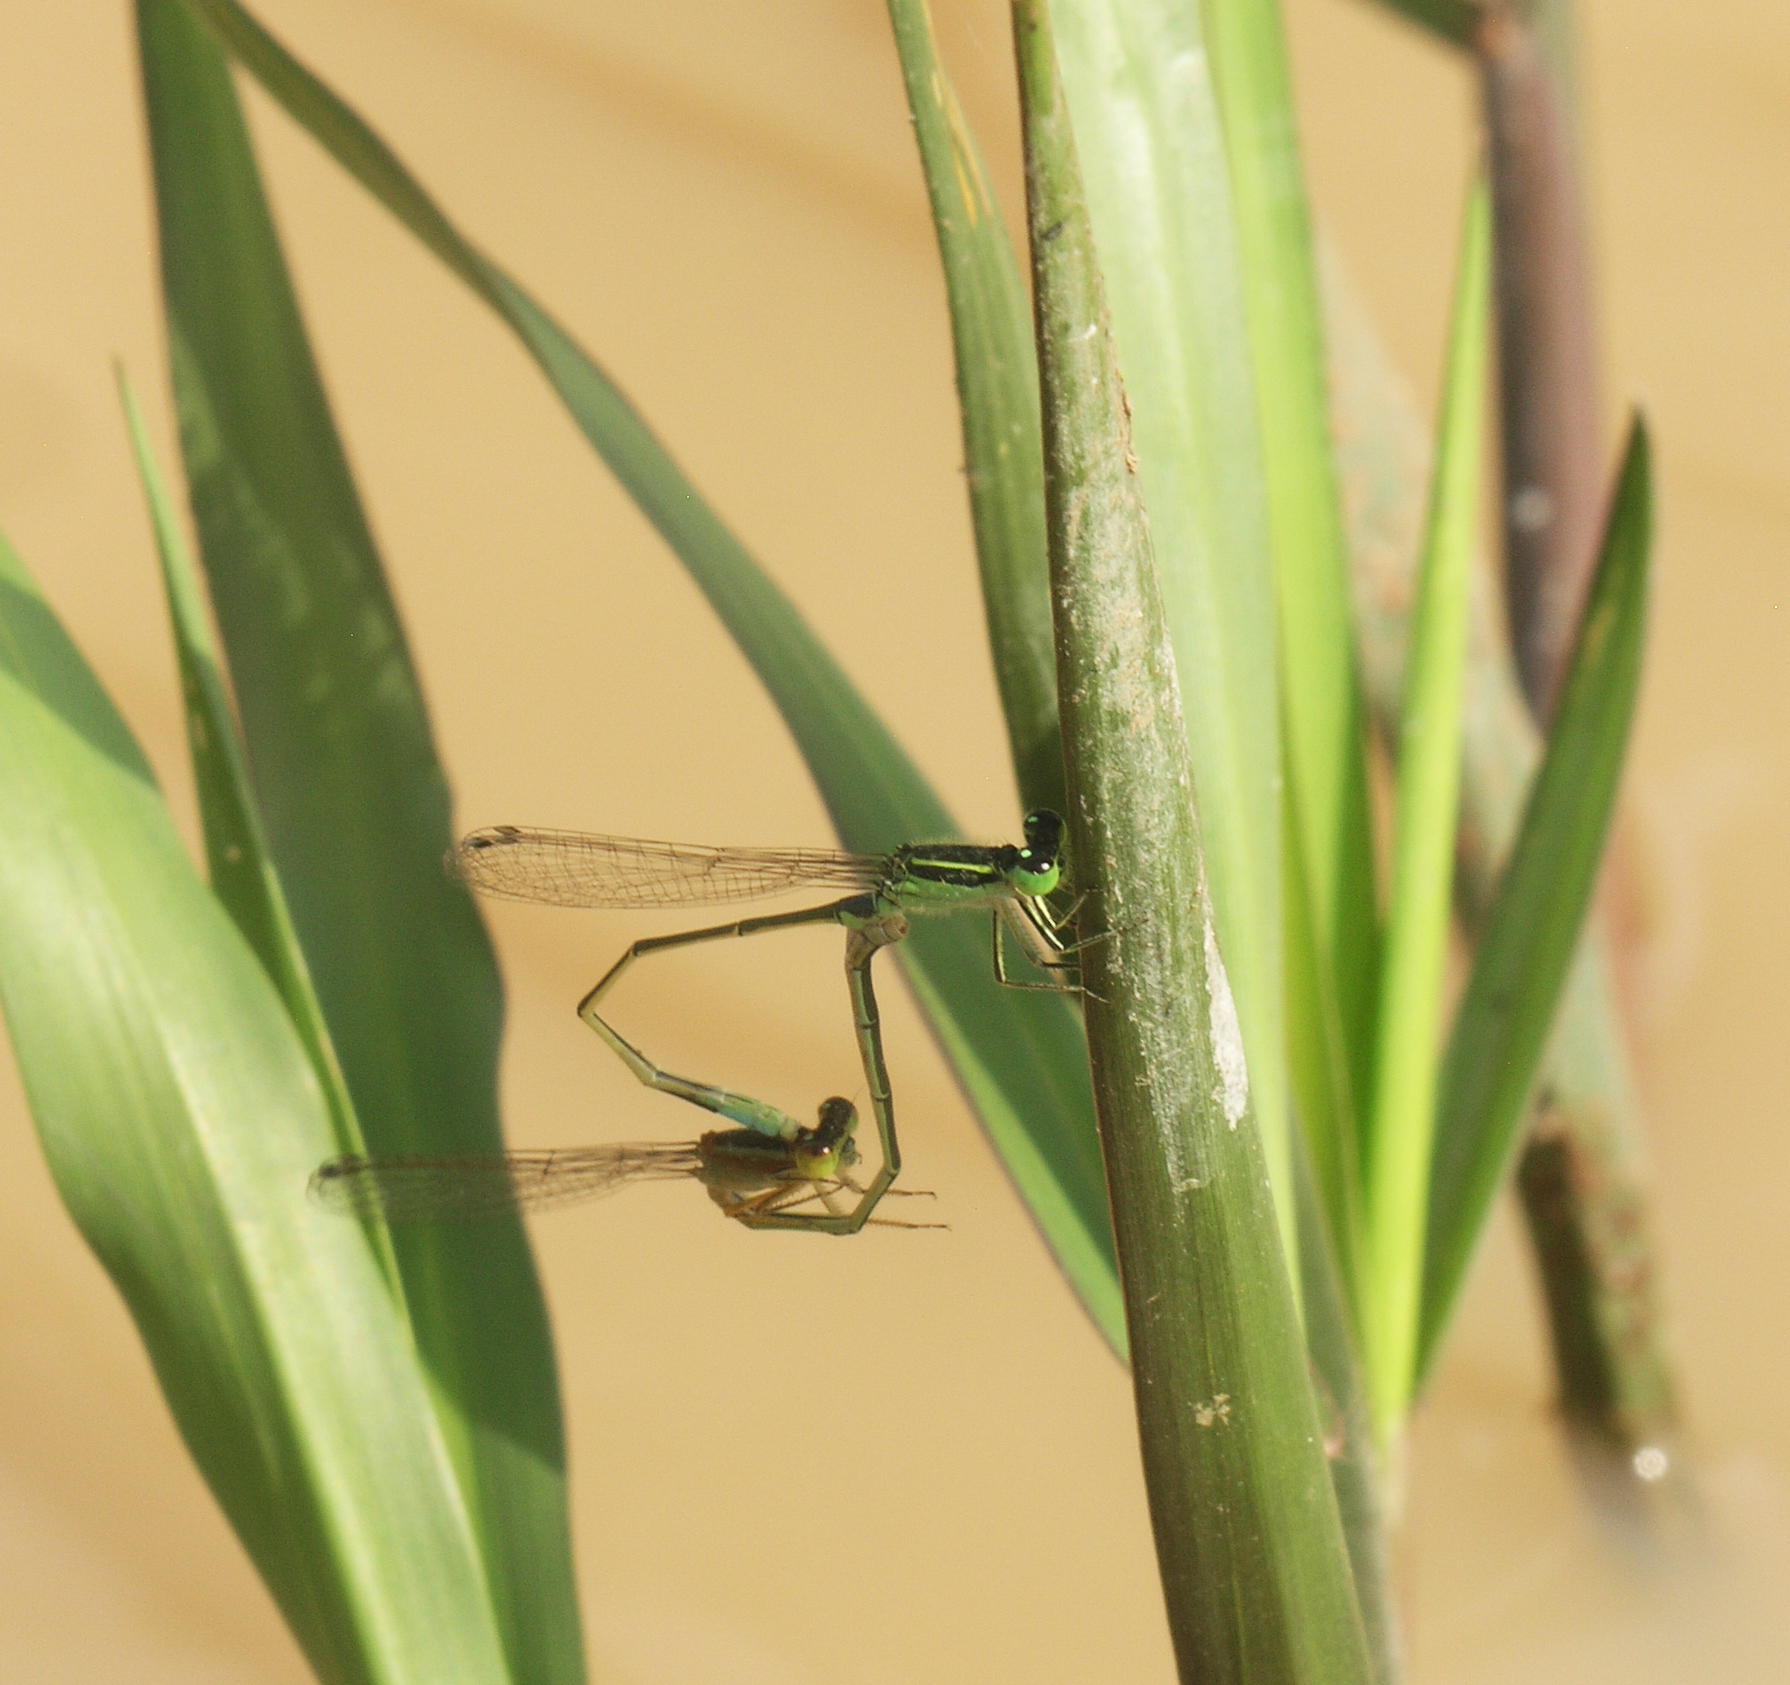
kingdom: Animalia
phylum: Arthropoda
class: Insecta
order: Odonata
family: Coenagrionidae
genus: Ischnura
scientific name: Ischnura senegalensis
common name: Tropical bluetail
